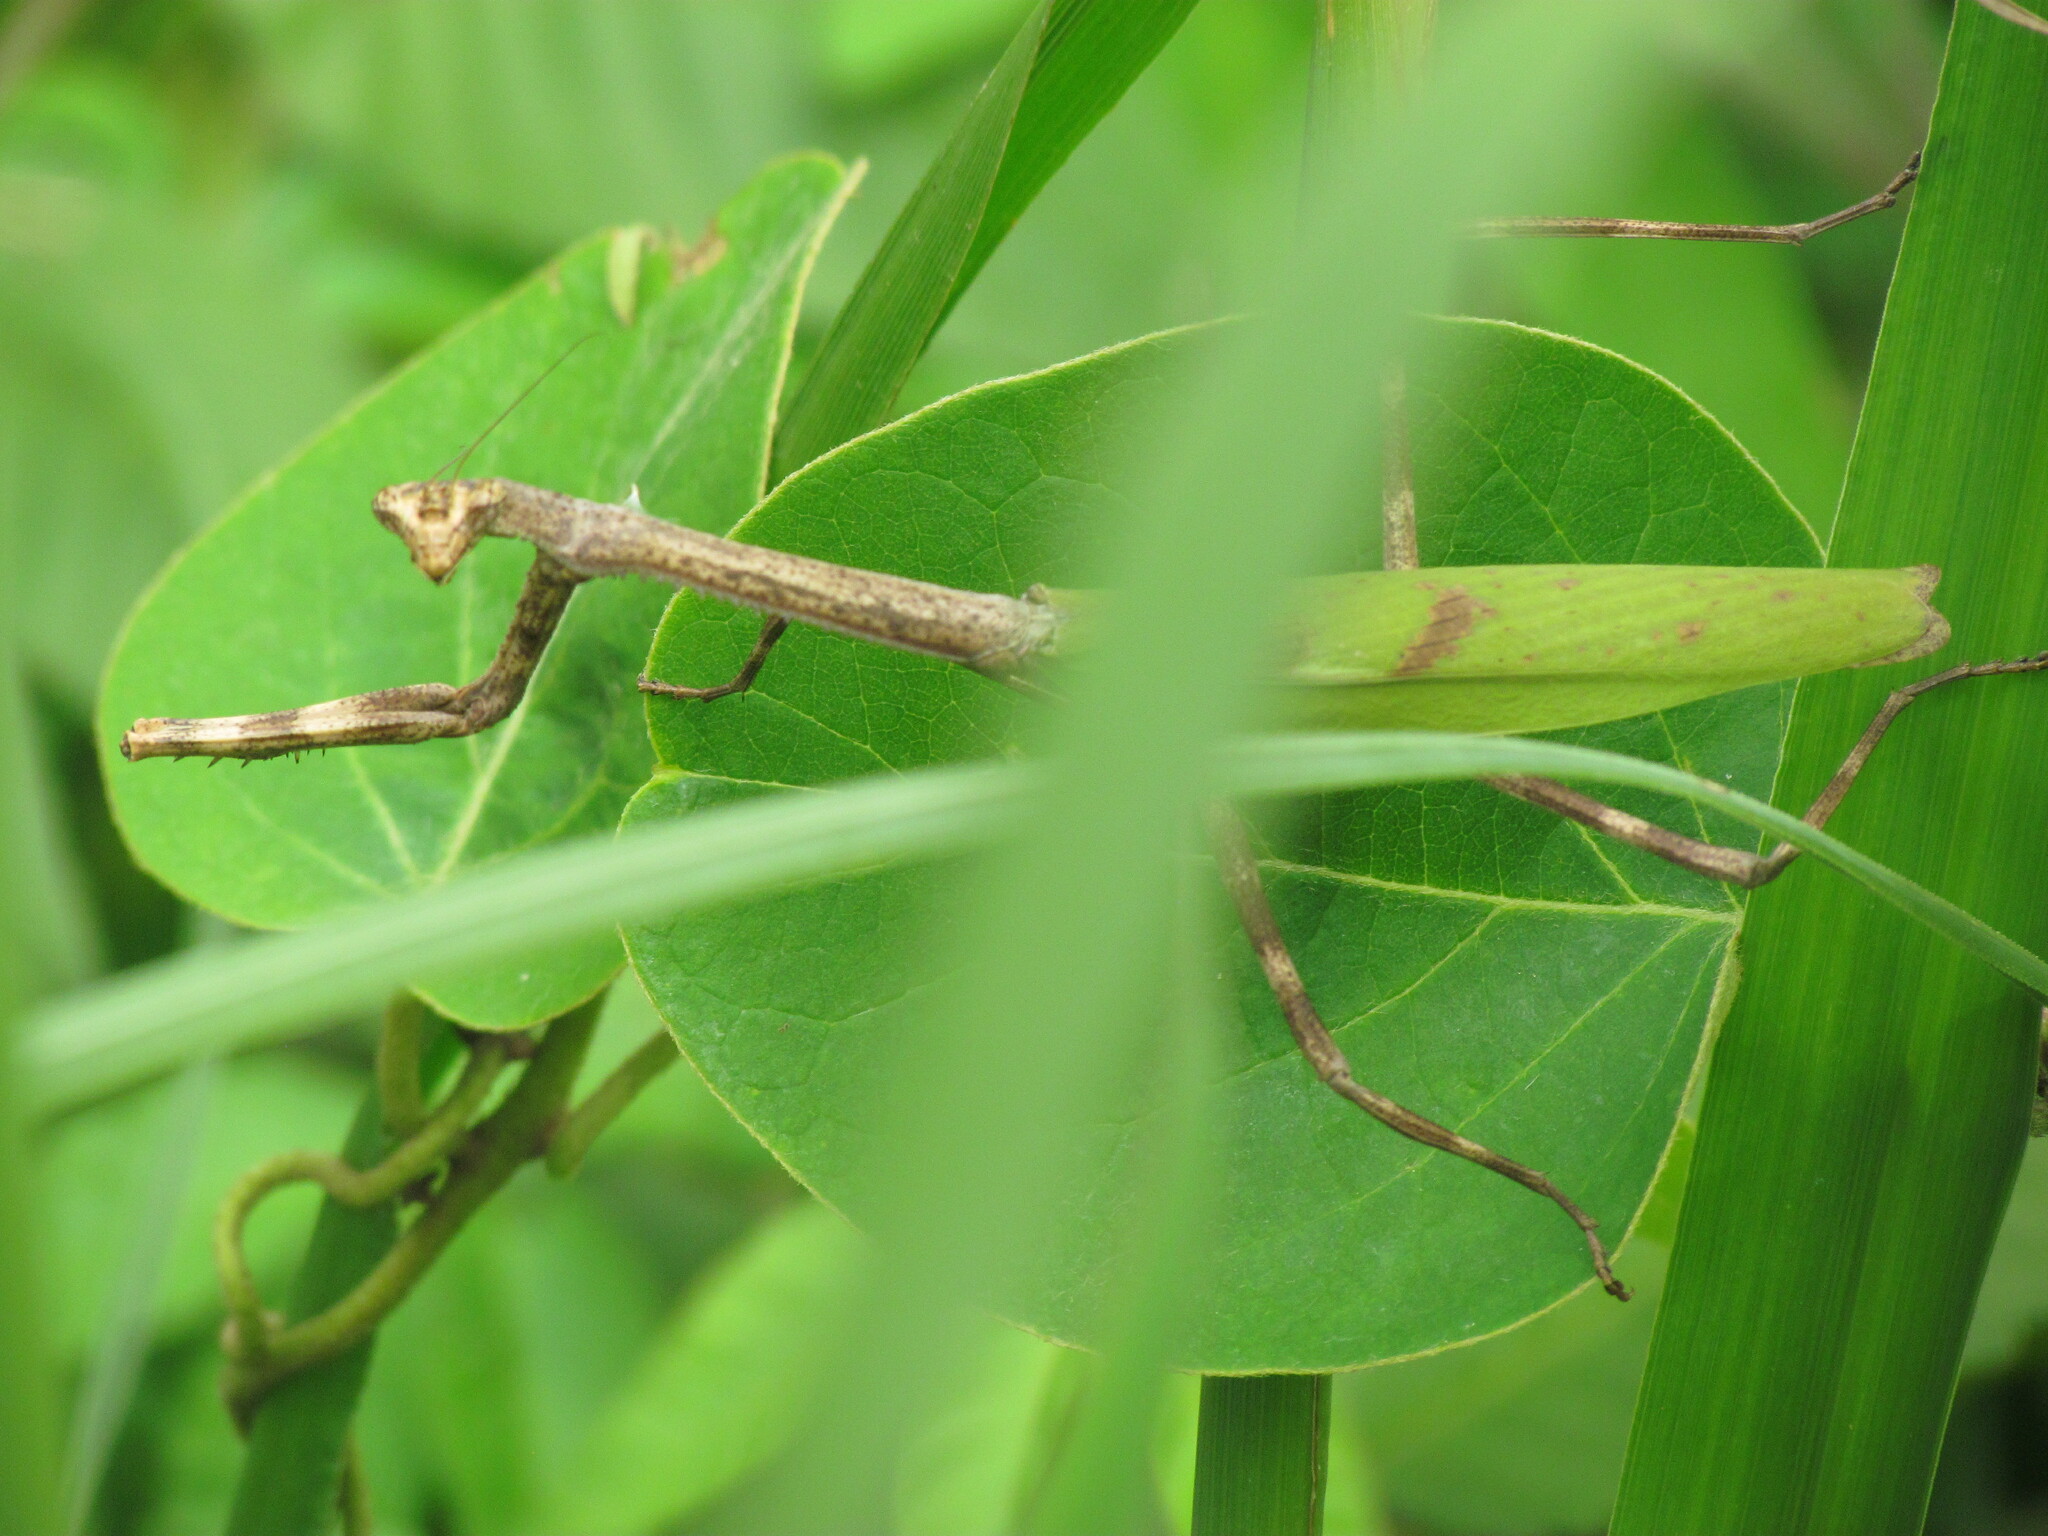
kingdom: Animalia
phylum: Arthropoda
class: Insecta
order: Mantodea
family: Mantidae
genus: Pseudovates
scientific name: Pseudovates iheringi
